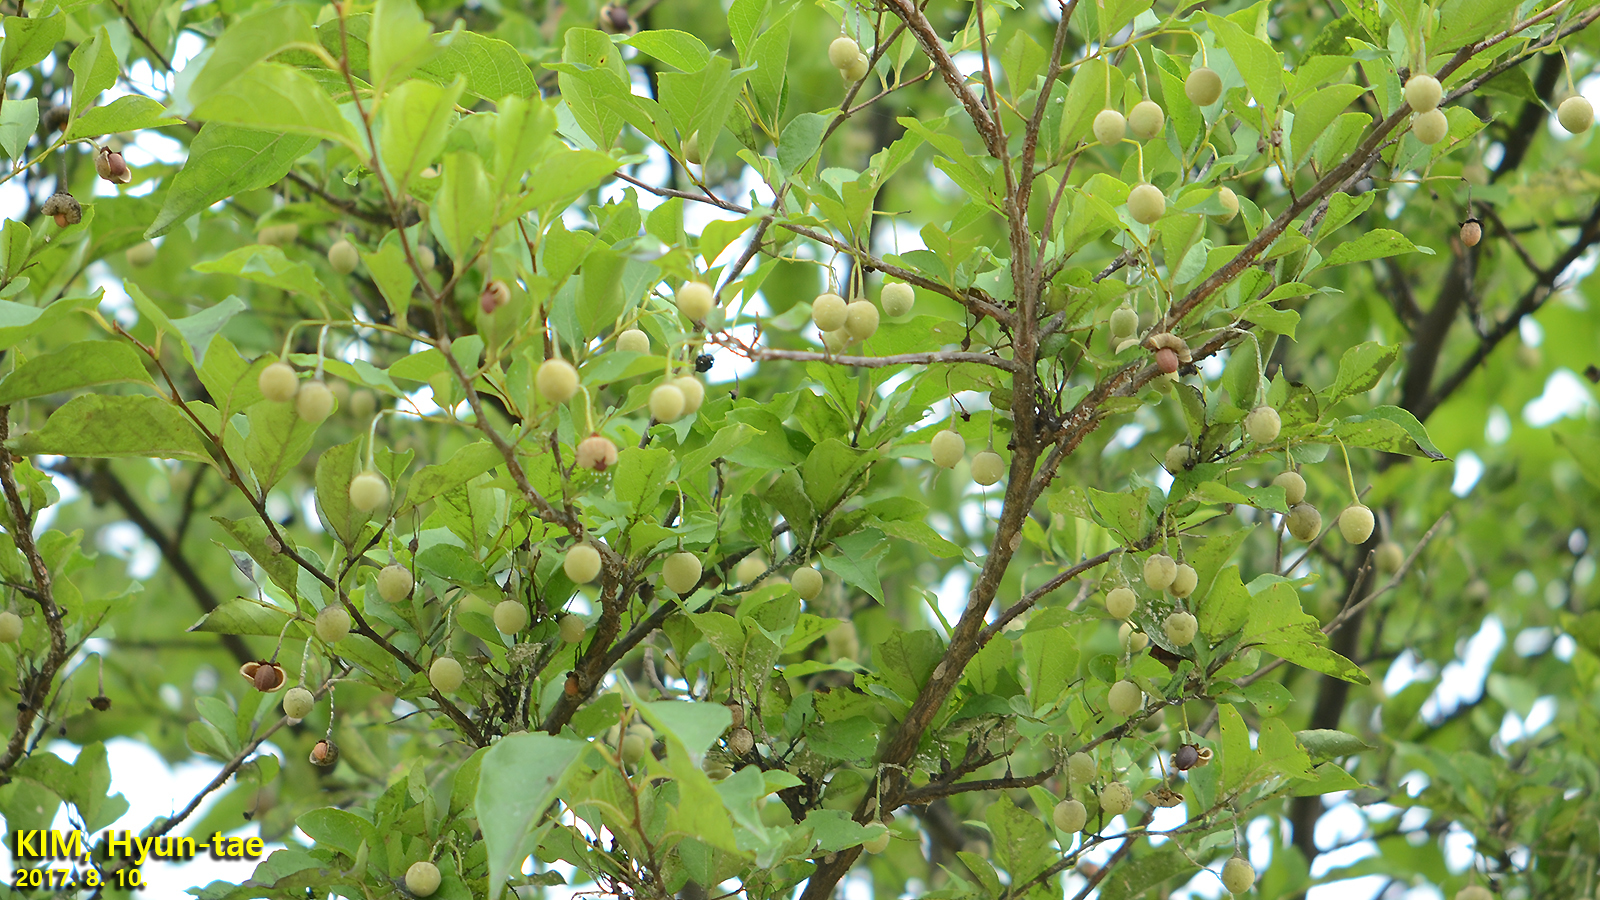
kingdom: Plantae
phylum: Tracheophyta
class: Magnoliopsida
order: Ericales
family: Styracaceae
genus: Styrax
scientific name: Styrax japonicus
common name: Japanese snowbell
